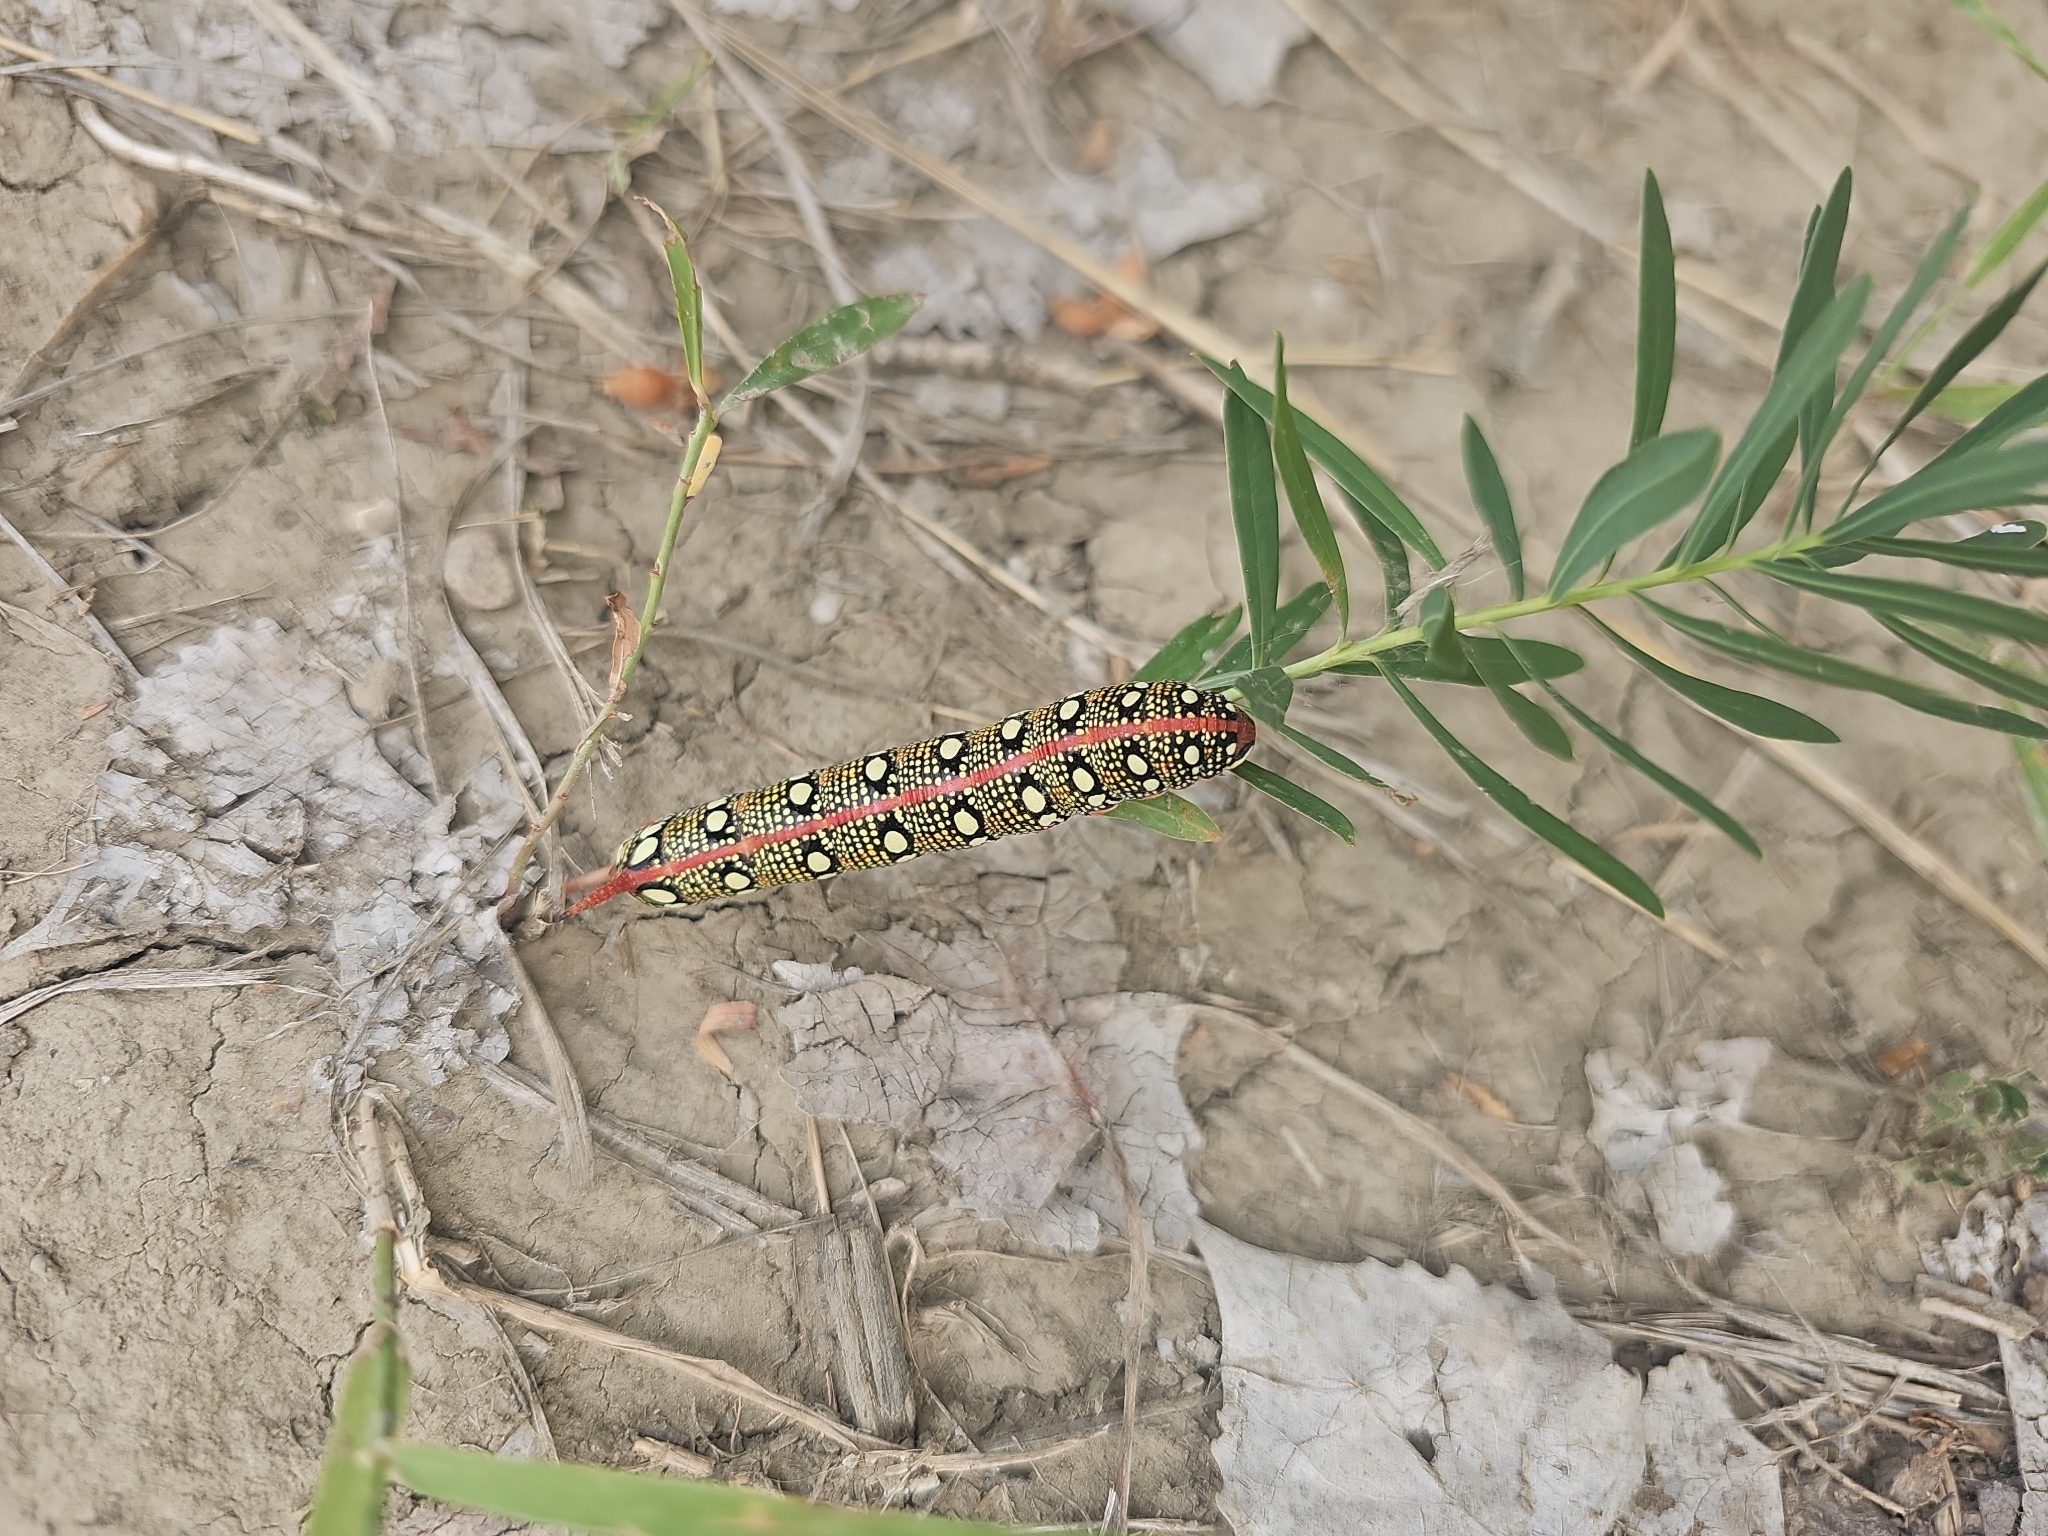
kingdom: Animalia
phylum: Arthropoda
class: Insecta
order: Lepidoptera
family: Sphingidae
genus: Hyles
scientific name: Hyles euphorbiae
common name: Spurge hawk-moth
